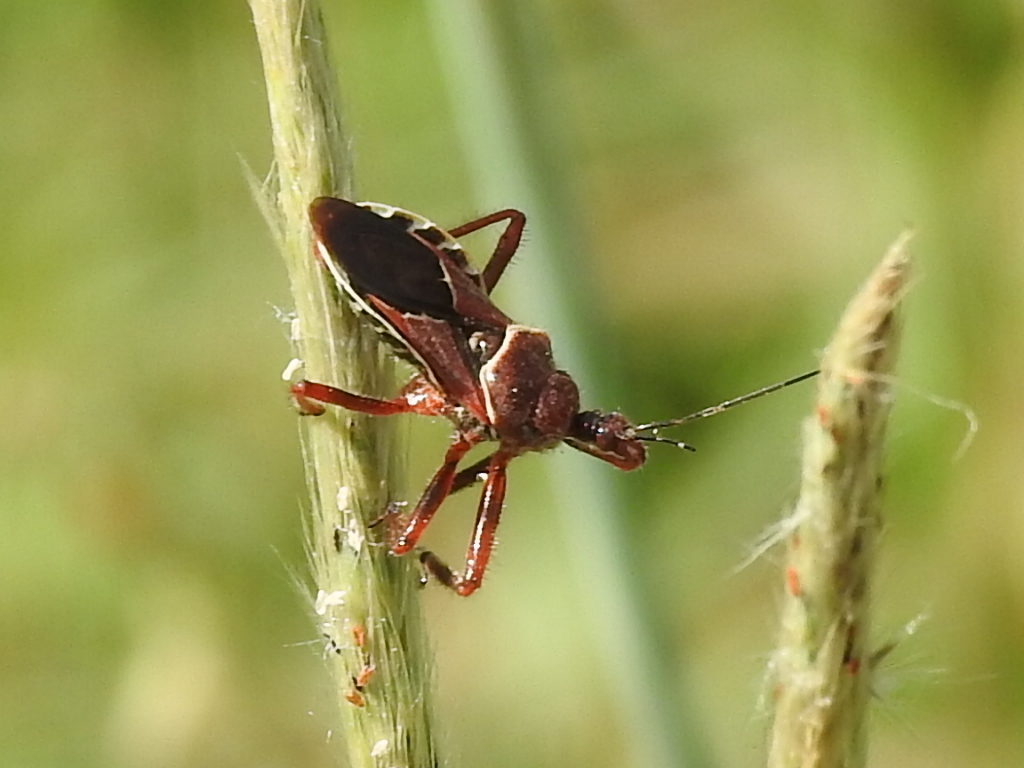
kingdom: Animalia
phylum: Arthropoda
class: Insecta
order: Hemiptera
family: Reduviidae
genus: Apiomerus
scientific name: Apiomerus spissipes
